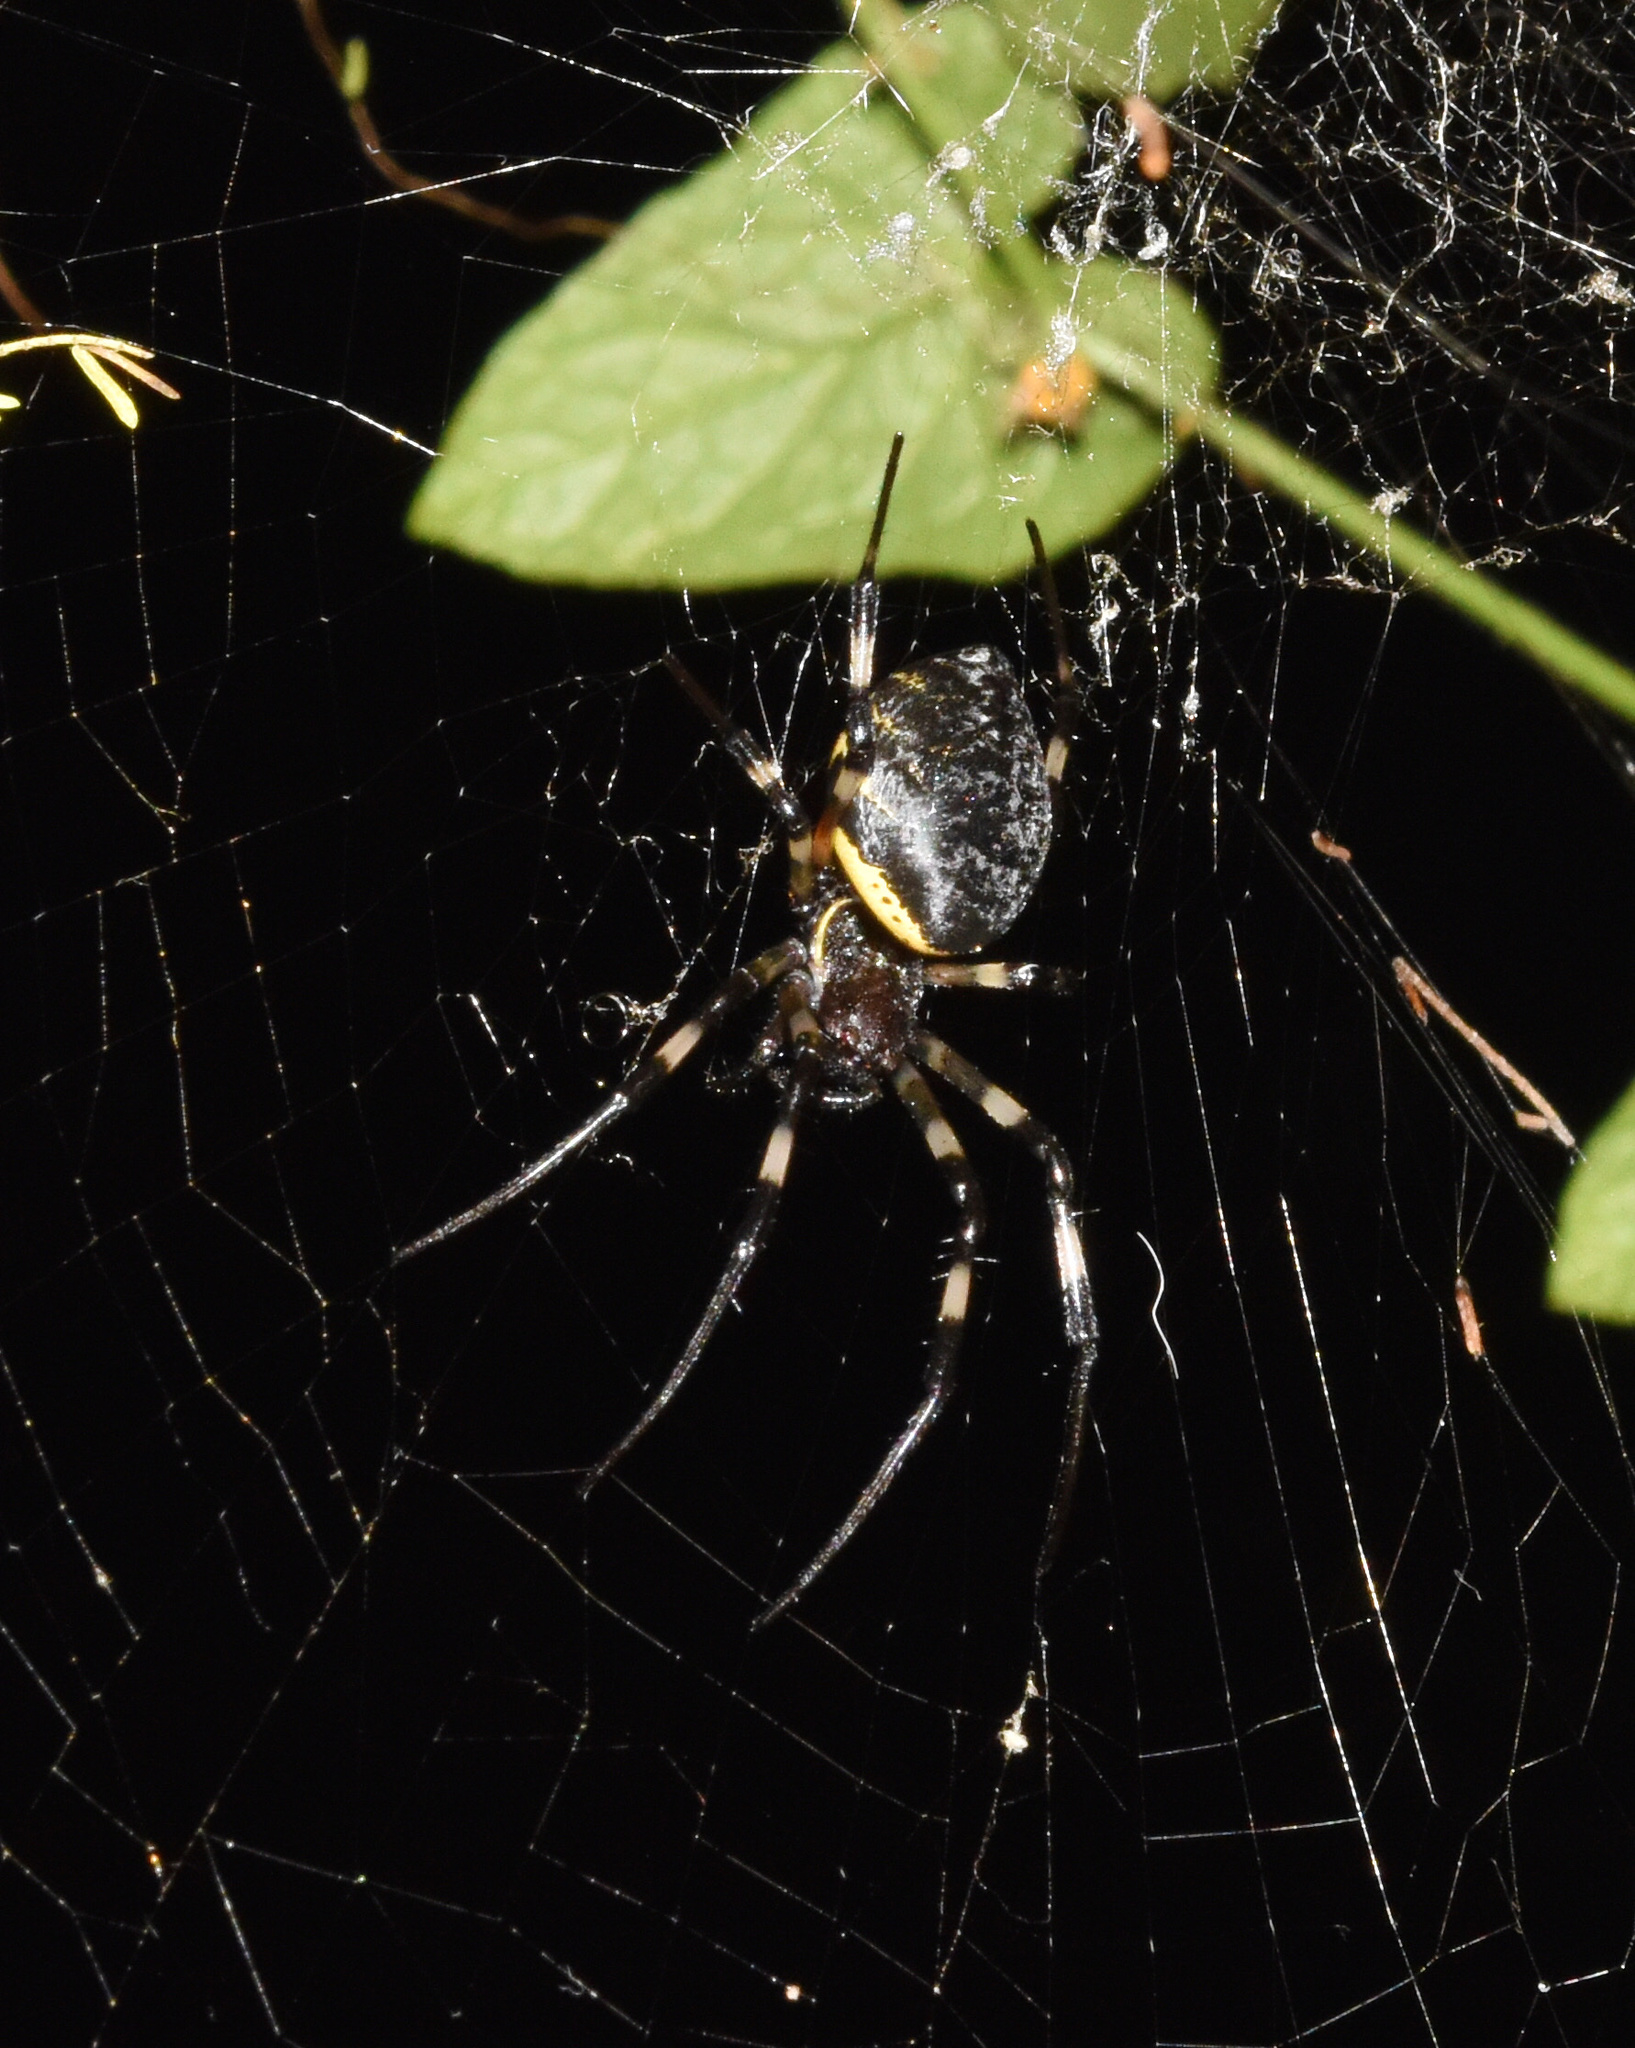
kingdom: Animalia
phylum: Arthropoda
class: Arachnida
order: Araneae
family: Araneidae
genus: Nephilingis
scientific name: Nephilingis cruentata
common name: African hermit spider
